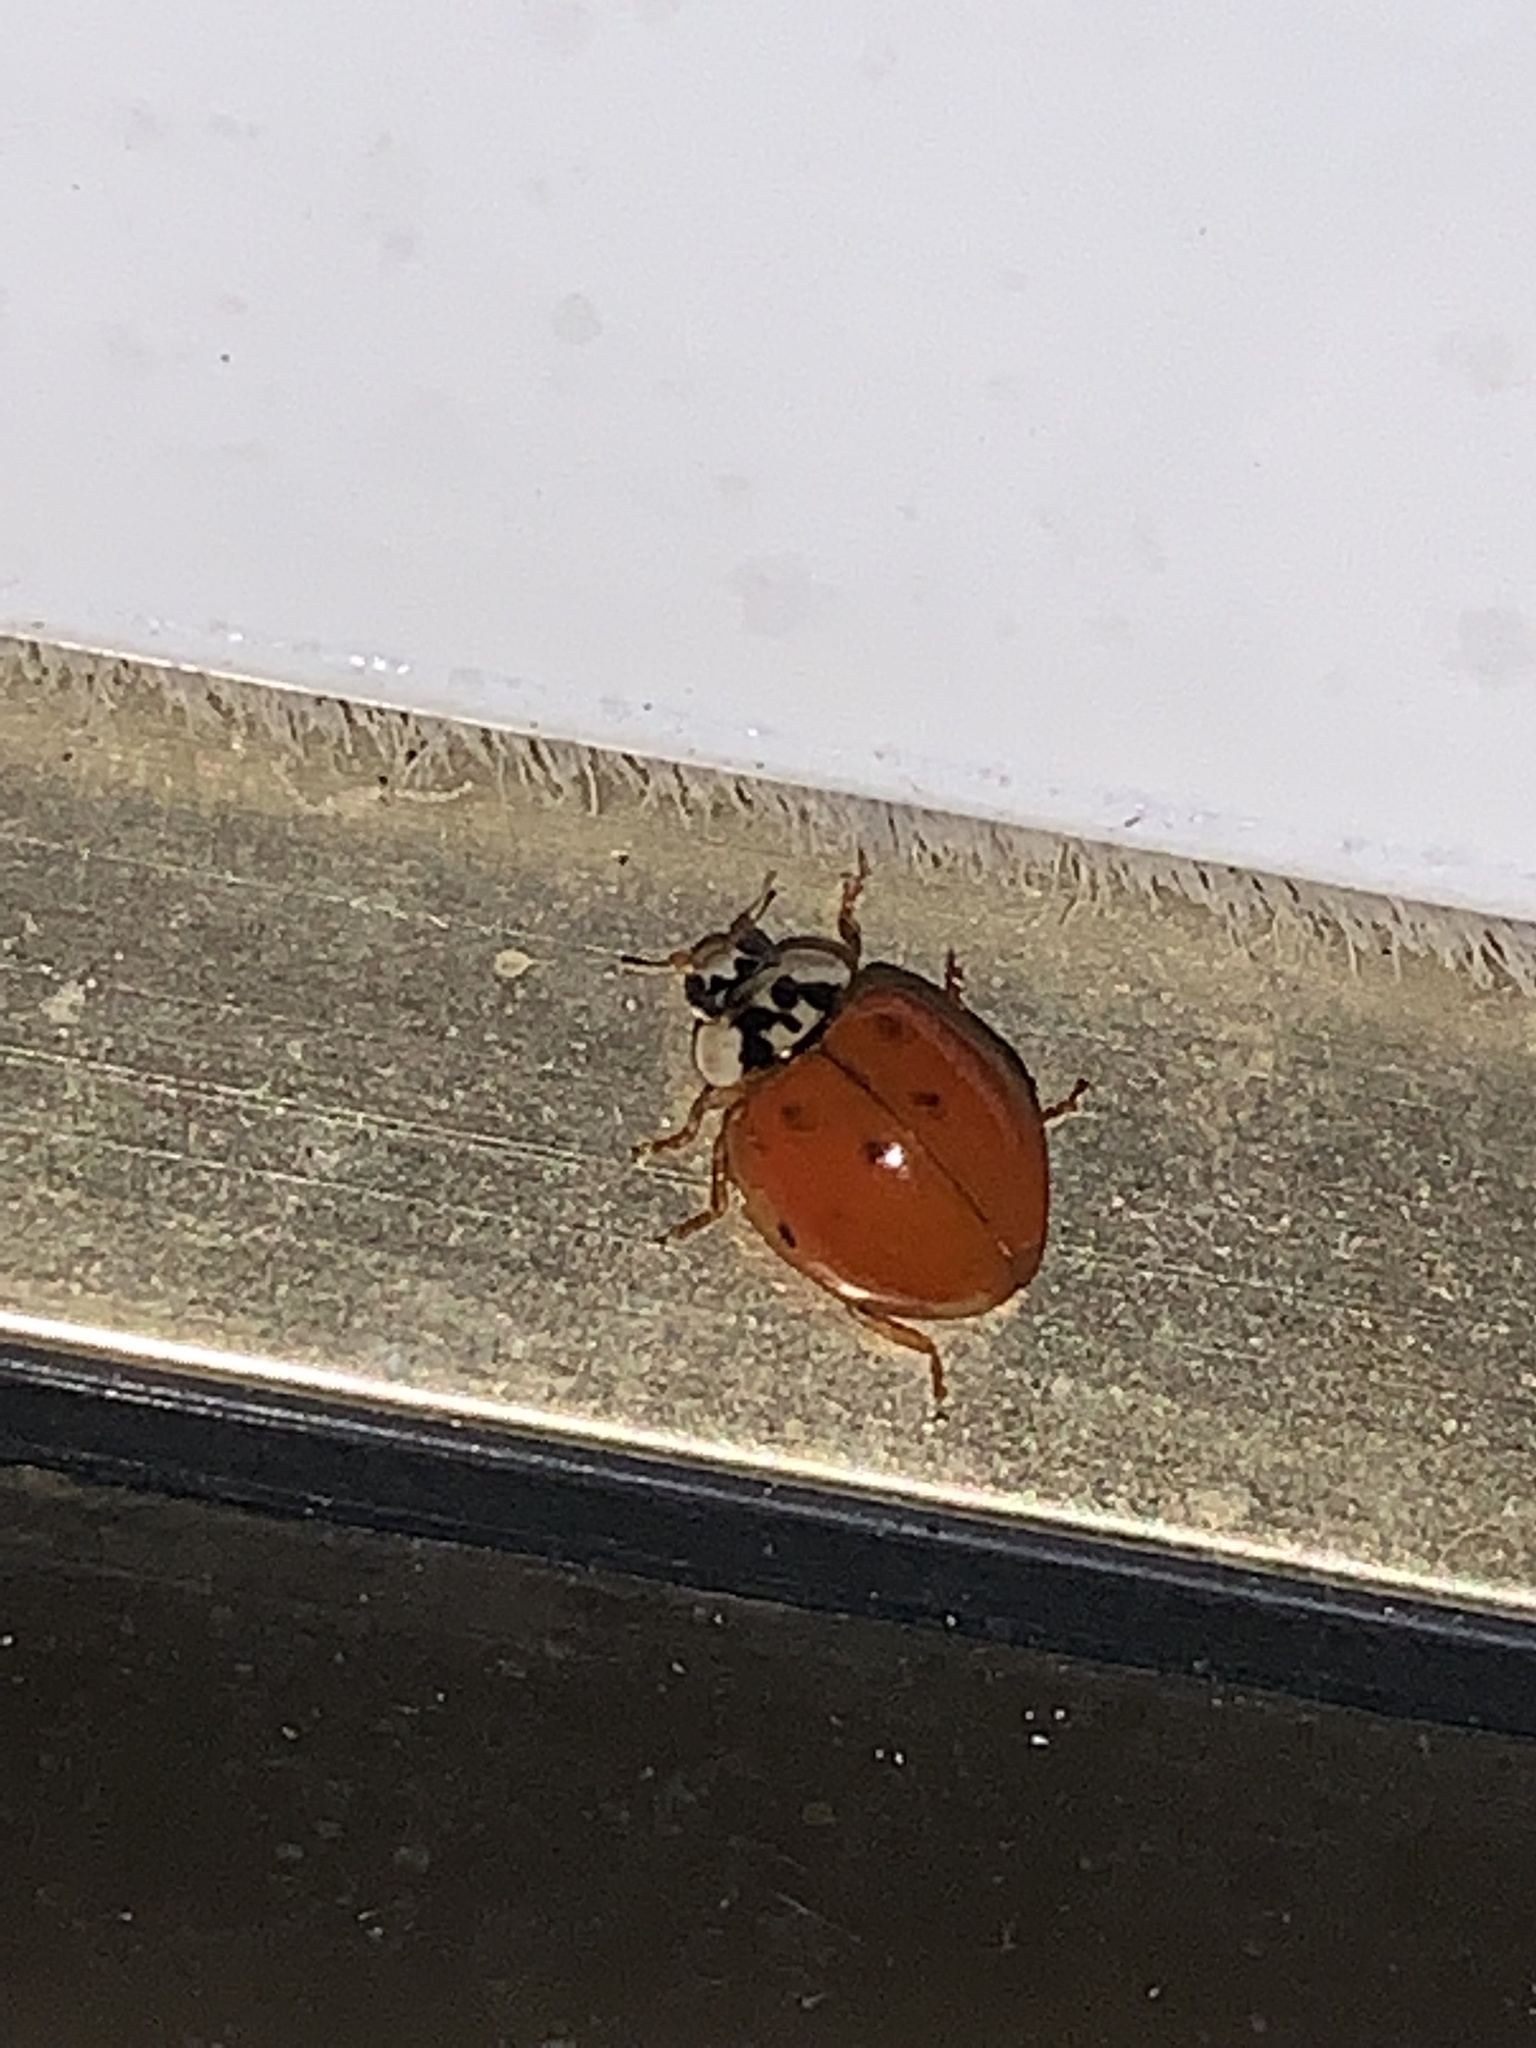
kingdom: Animalia
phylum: Arthropoda
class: Insecta
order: Coleoptera
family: Coccinellidae
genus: Harmonia
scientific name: Harmonia axyridis
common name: Harlequin ladybird
